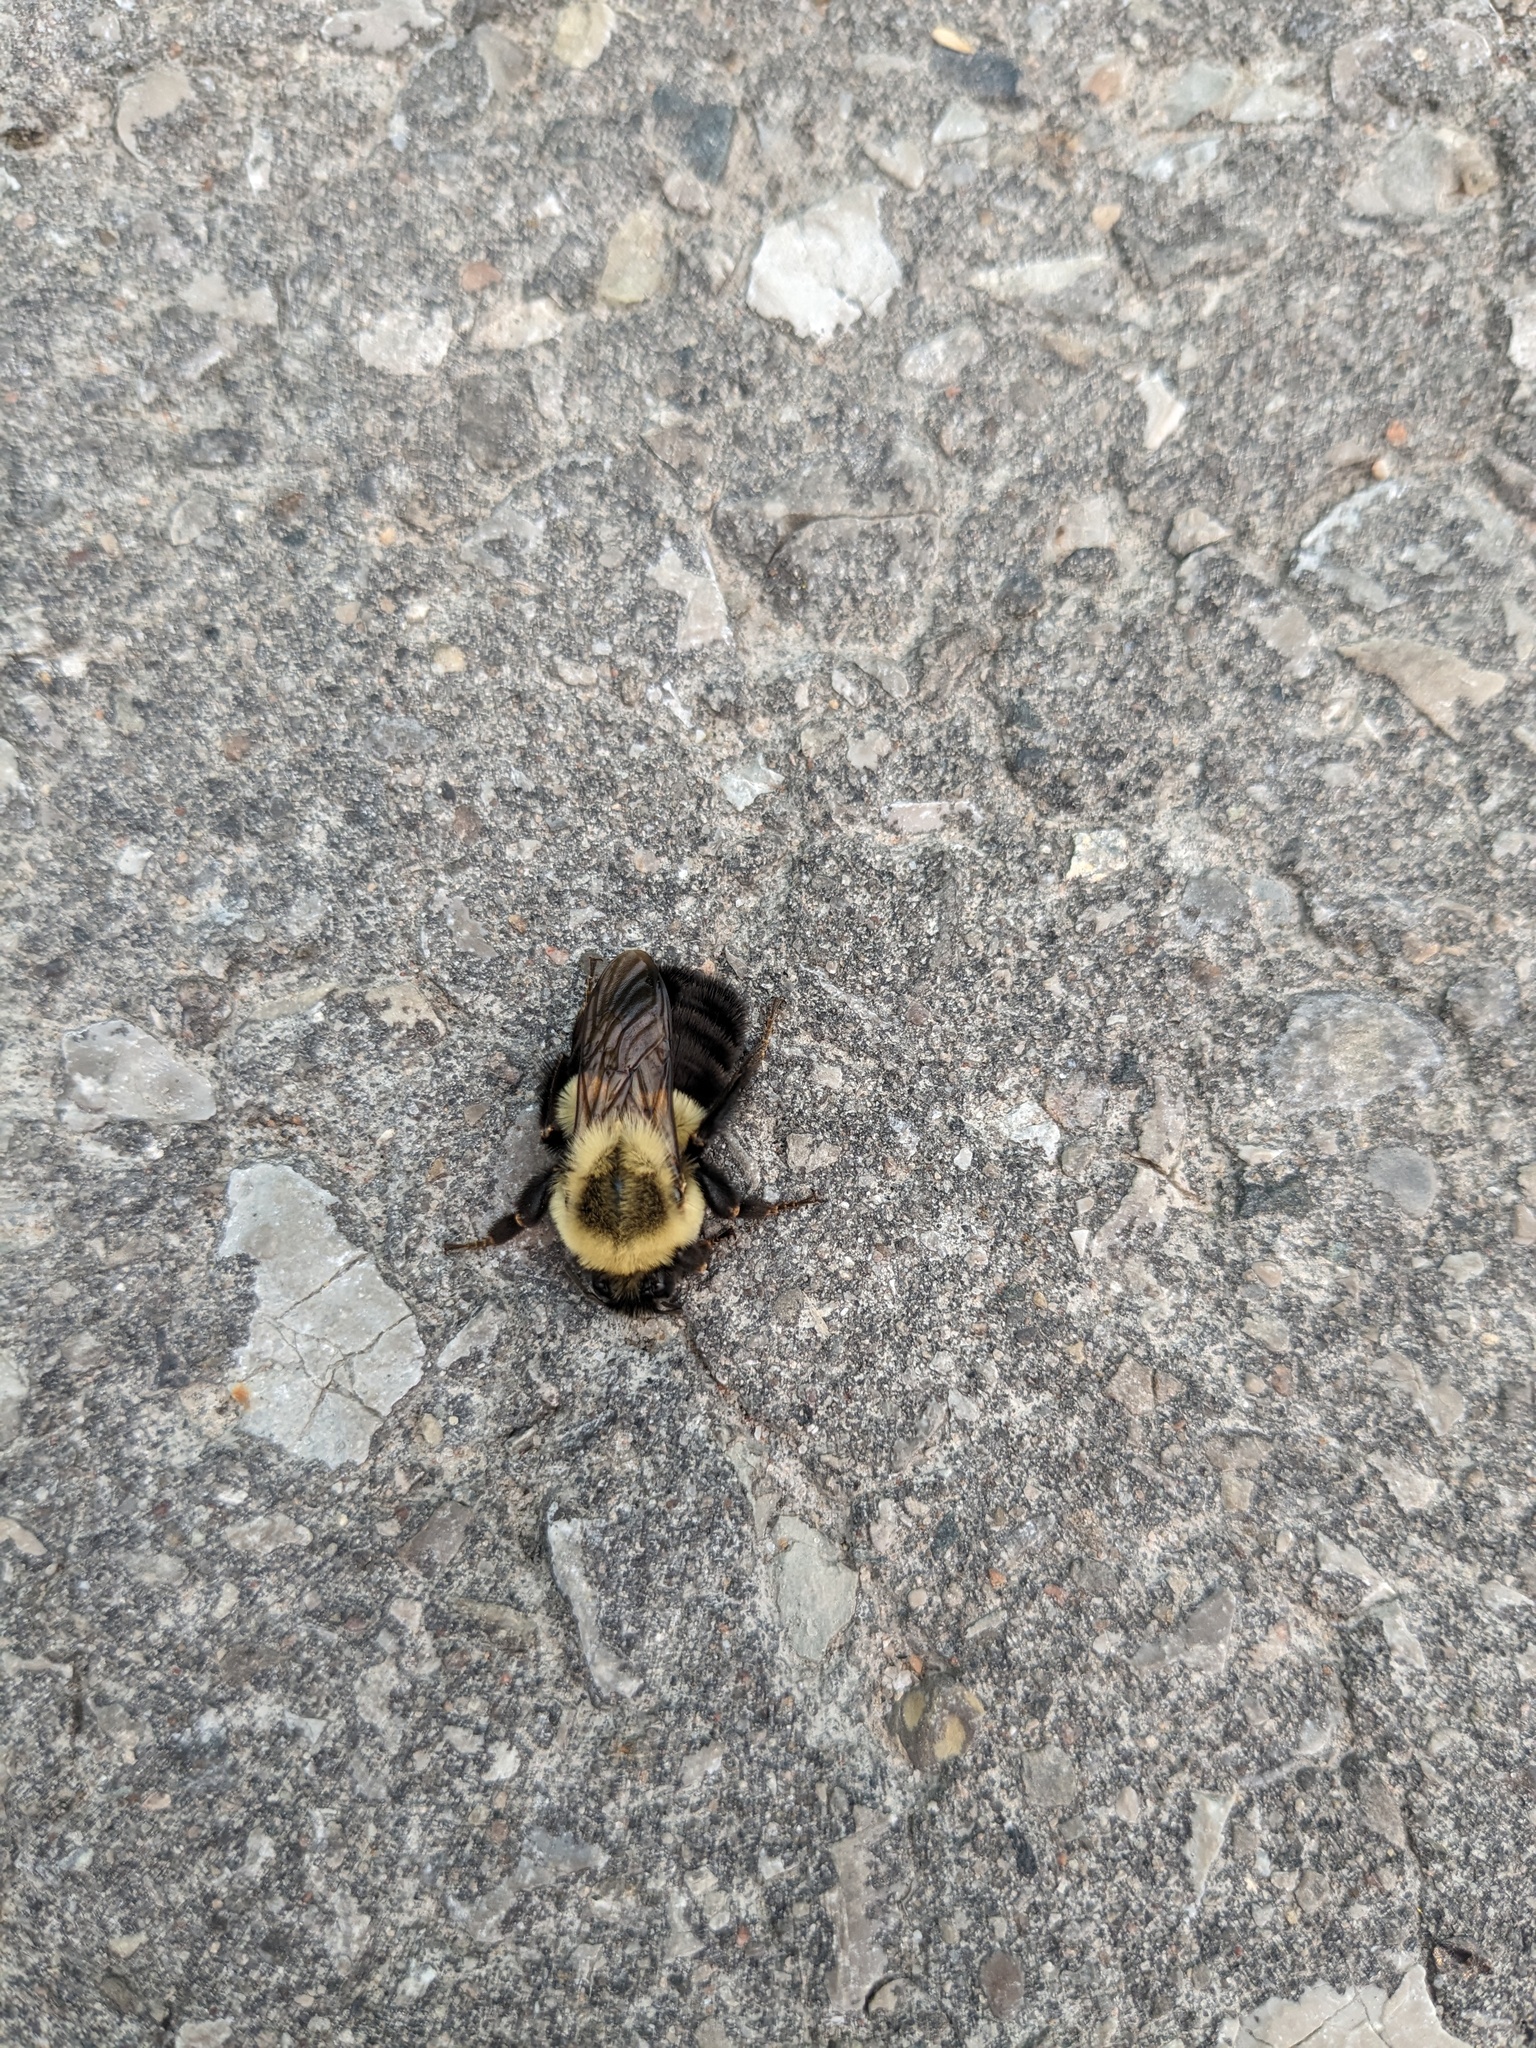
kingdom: Animalia
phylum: Arthropoda
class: Insecta
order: Hymenoptera
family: Apidae
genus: Bombus
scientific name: Bombus impatiens
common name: Common eastern bumble bee
